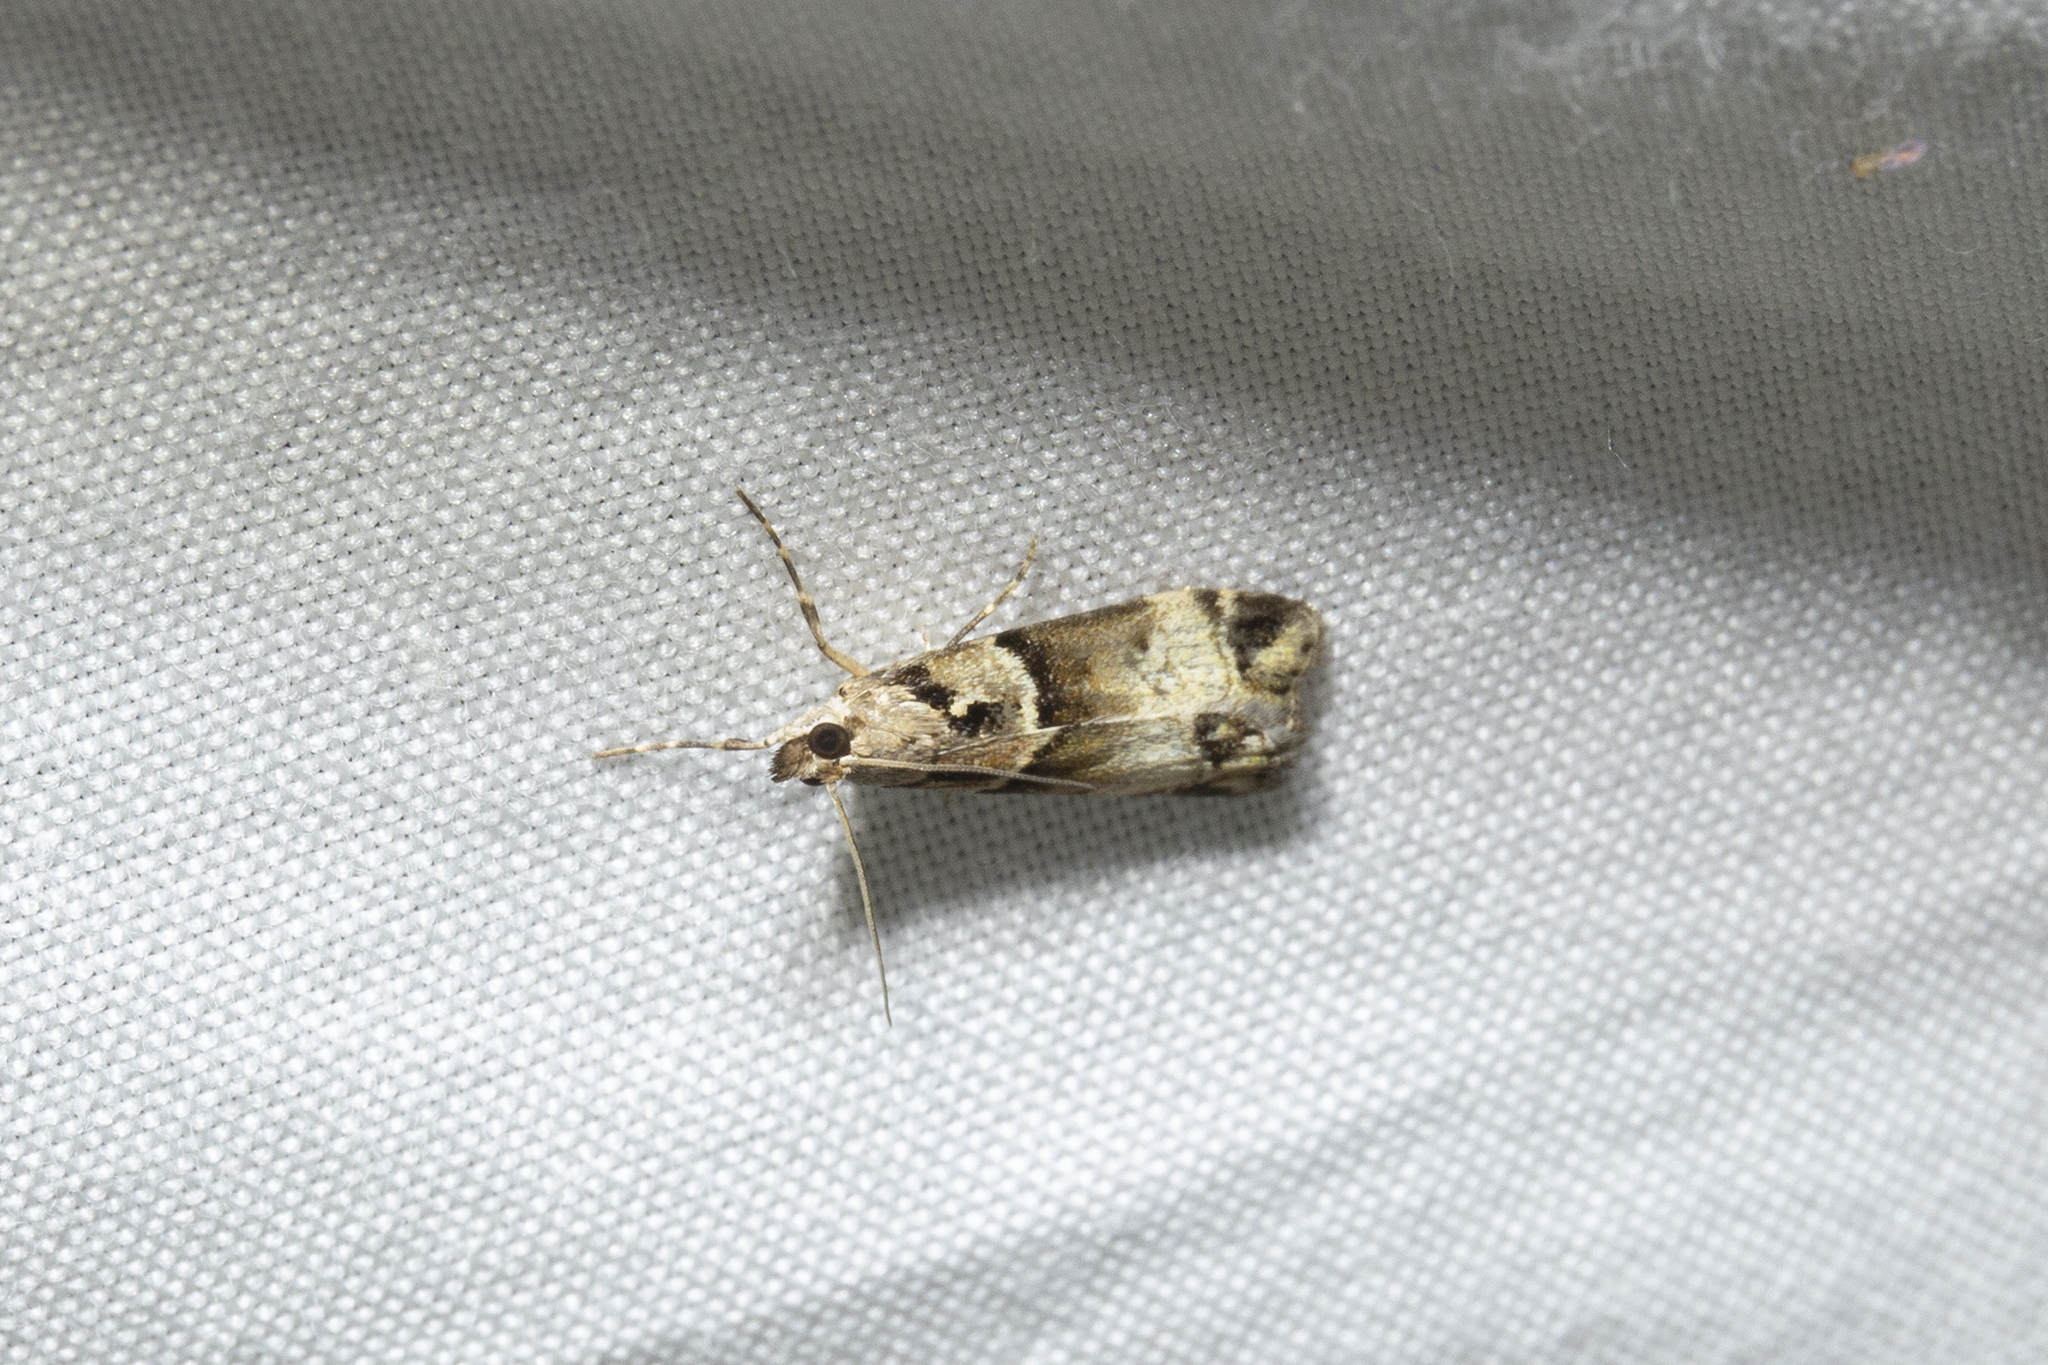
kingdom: Animalia
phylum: Arthropoda
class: Insecta
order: Lepidoptera
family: Crambidae
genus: Eudonia
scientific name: Eudonia periphanes
